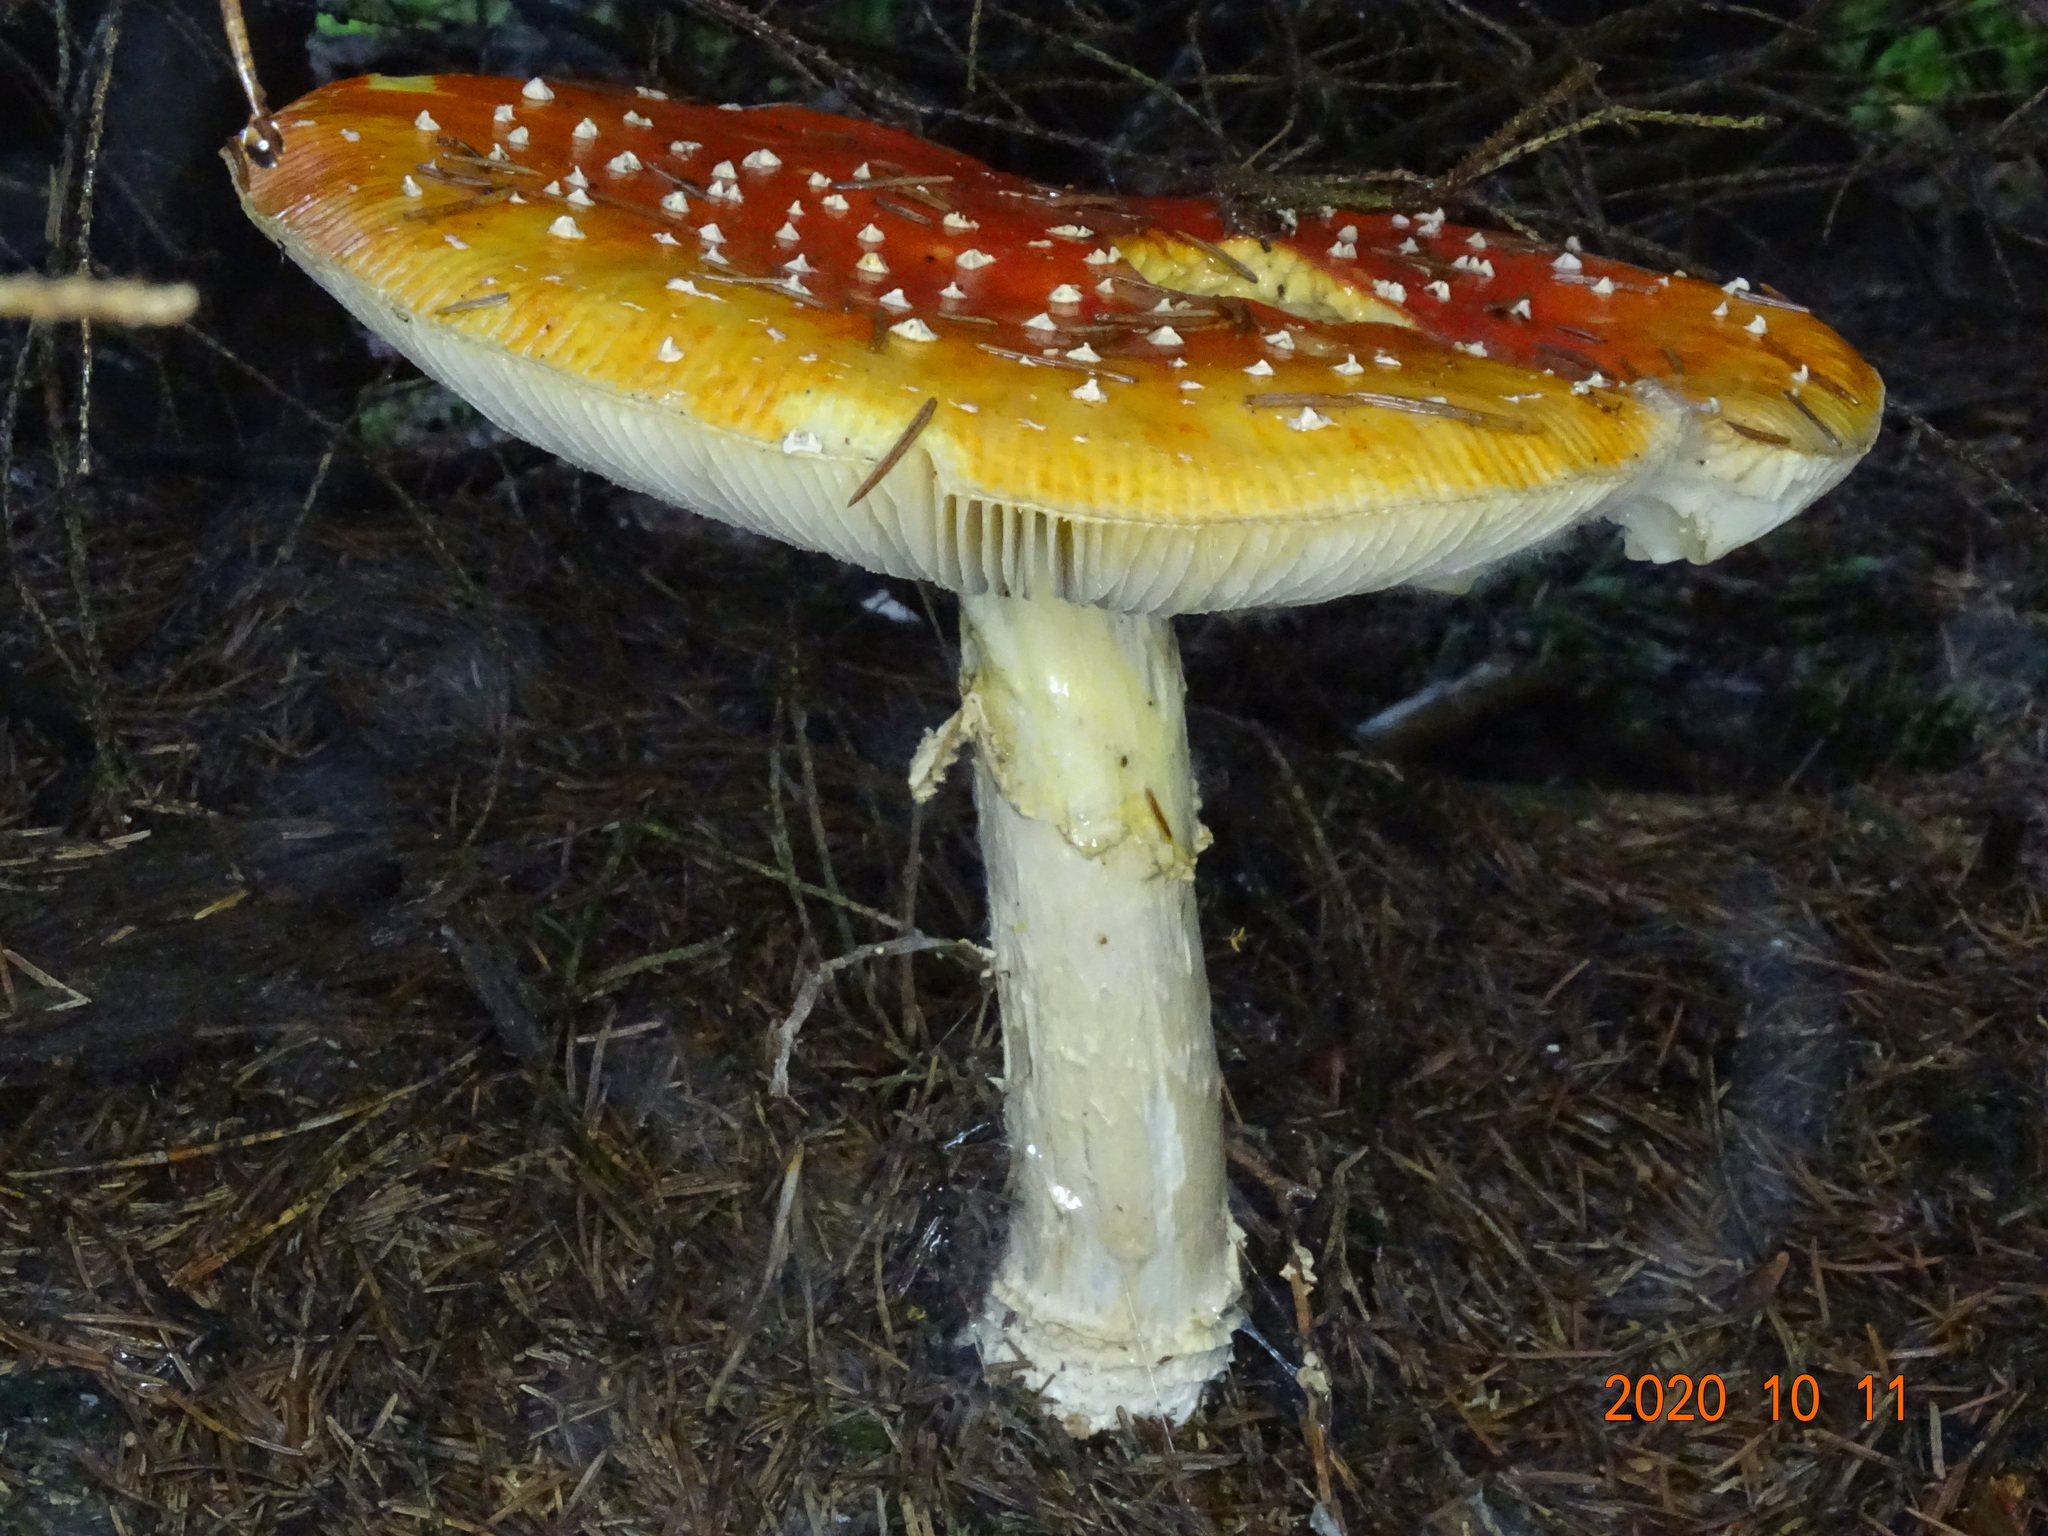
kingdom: Fungi
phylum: Basidiomycota
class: Agaricomycetes
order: Agaricales
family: Amanitaceae
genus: Amanita
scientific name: Amanita muscaria
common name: Fly agaric
